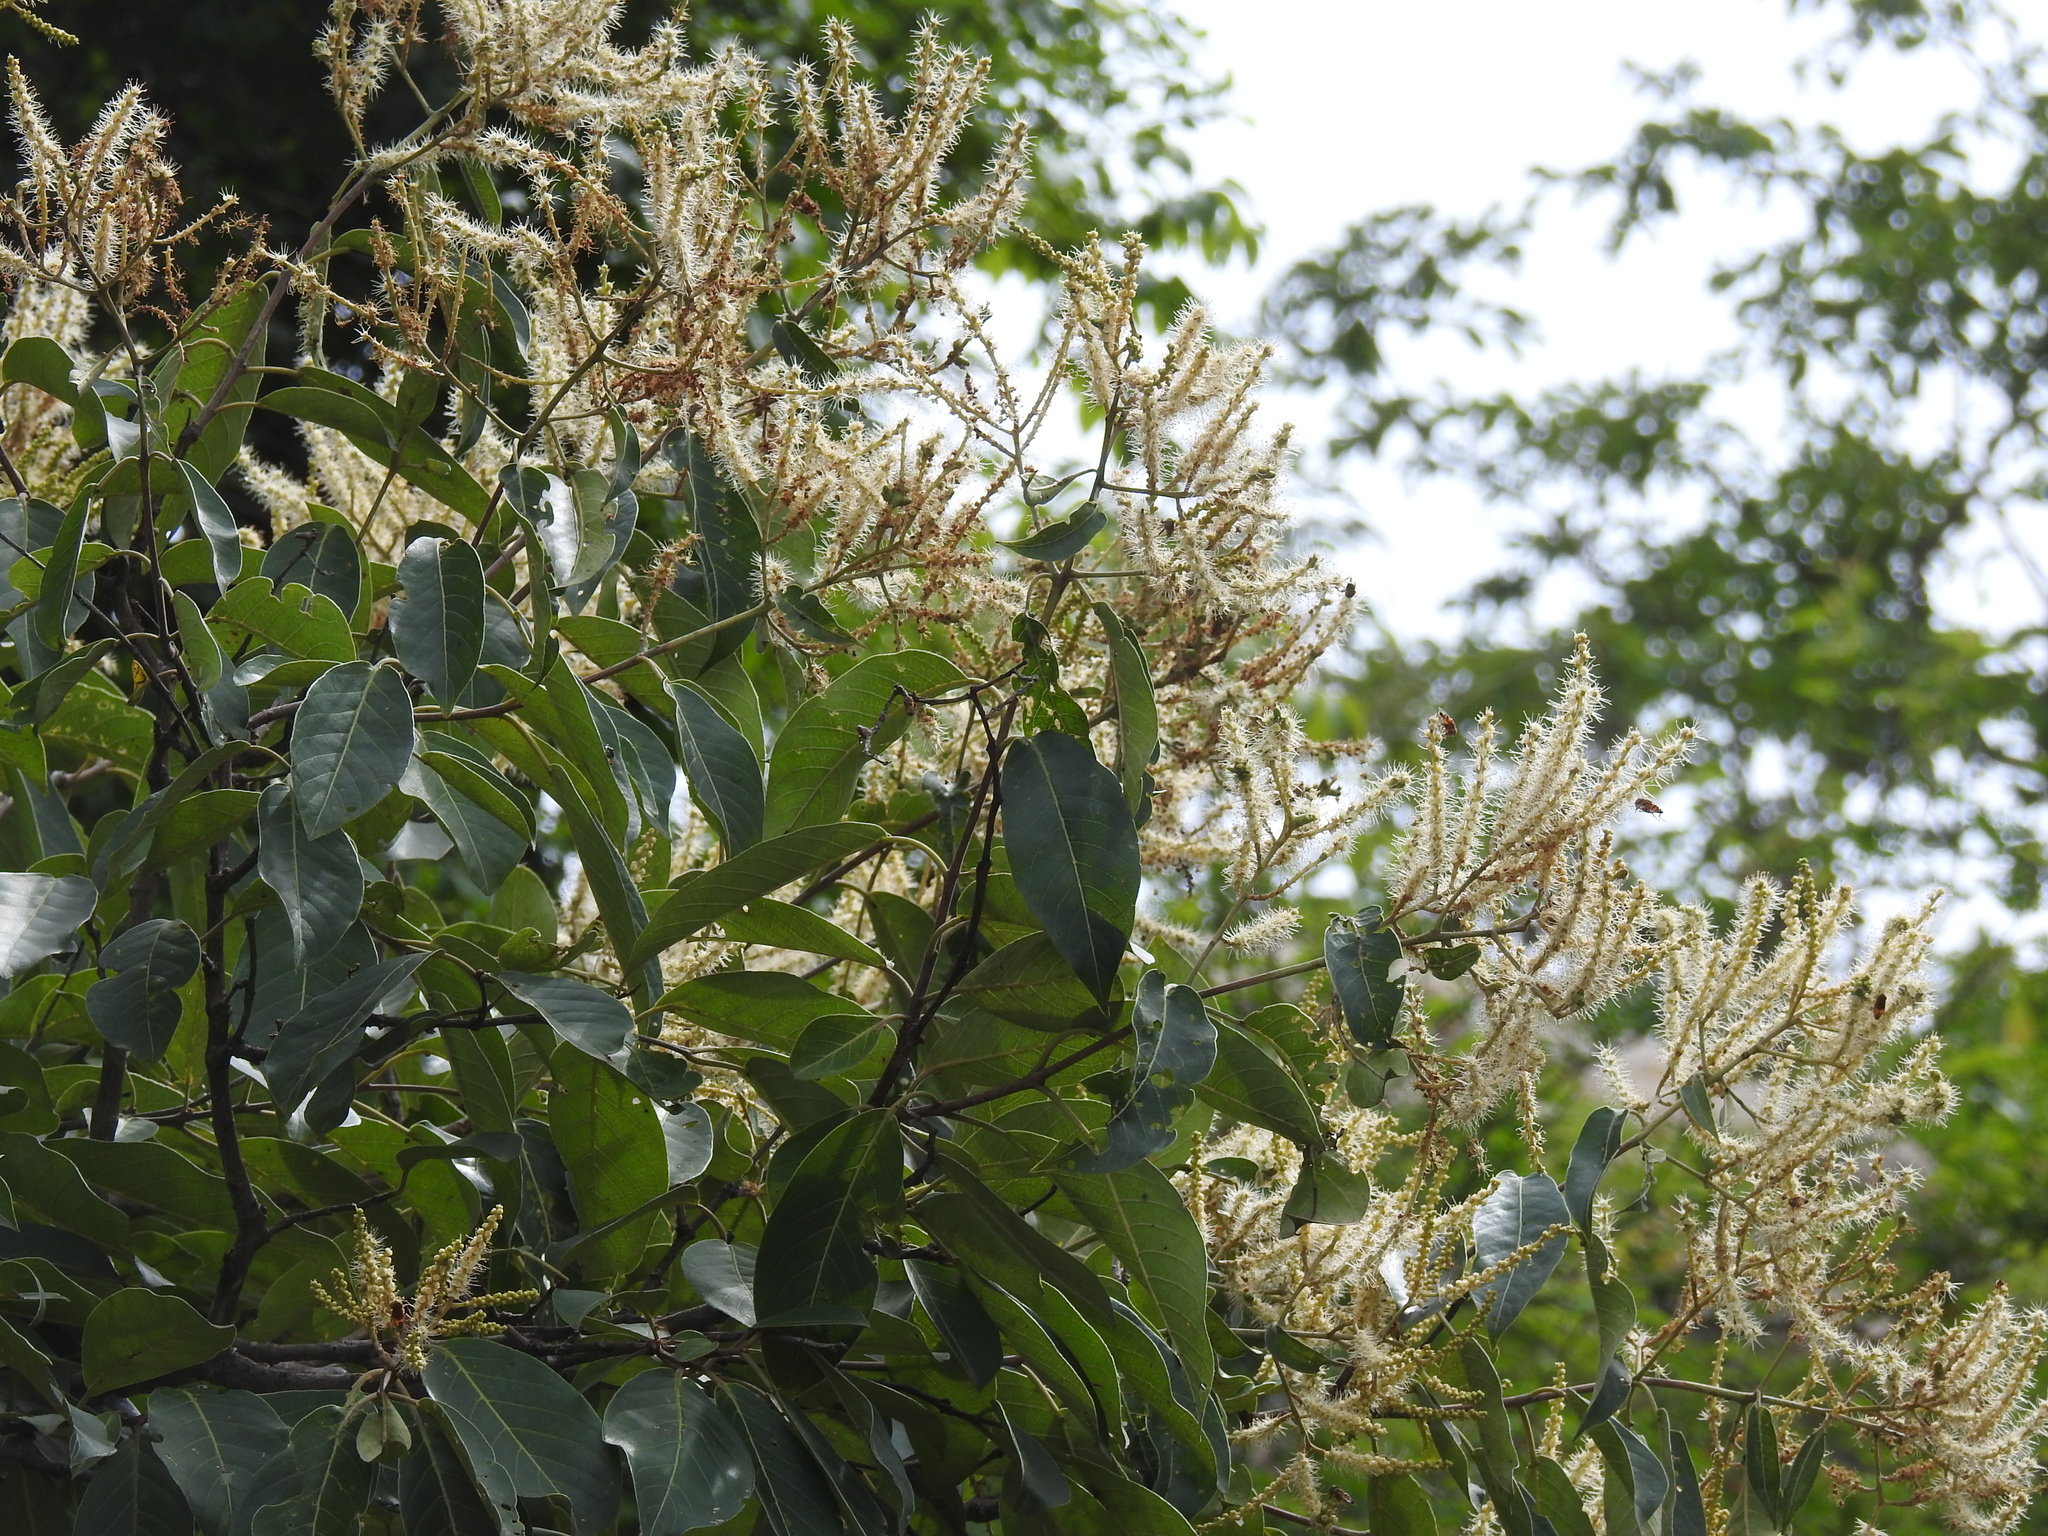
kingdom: Plantae
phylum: Tracheophyta
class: Magnoliopsida
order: Myrtales
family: Combretaceae
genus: Terminalia
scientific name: Terminalia paniculata
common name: Flowering murdah
